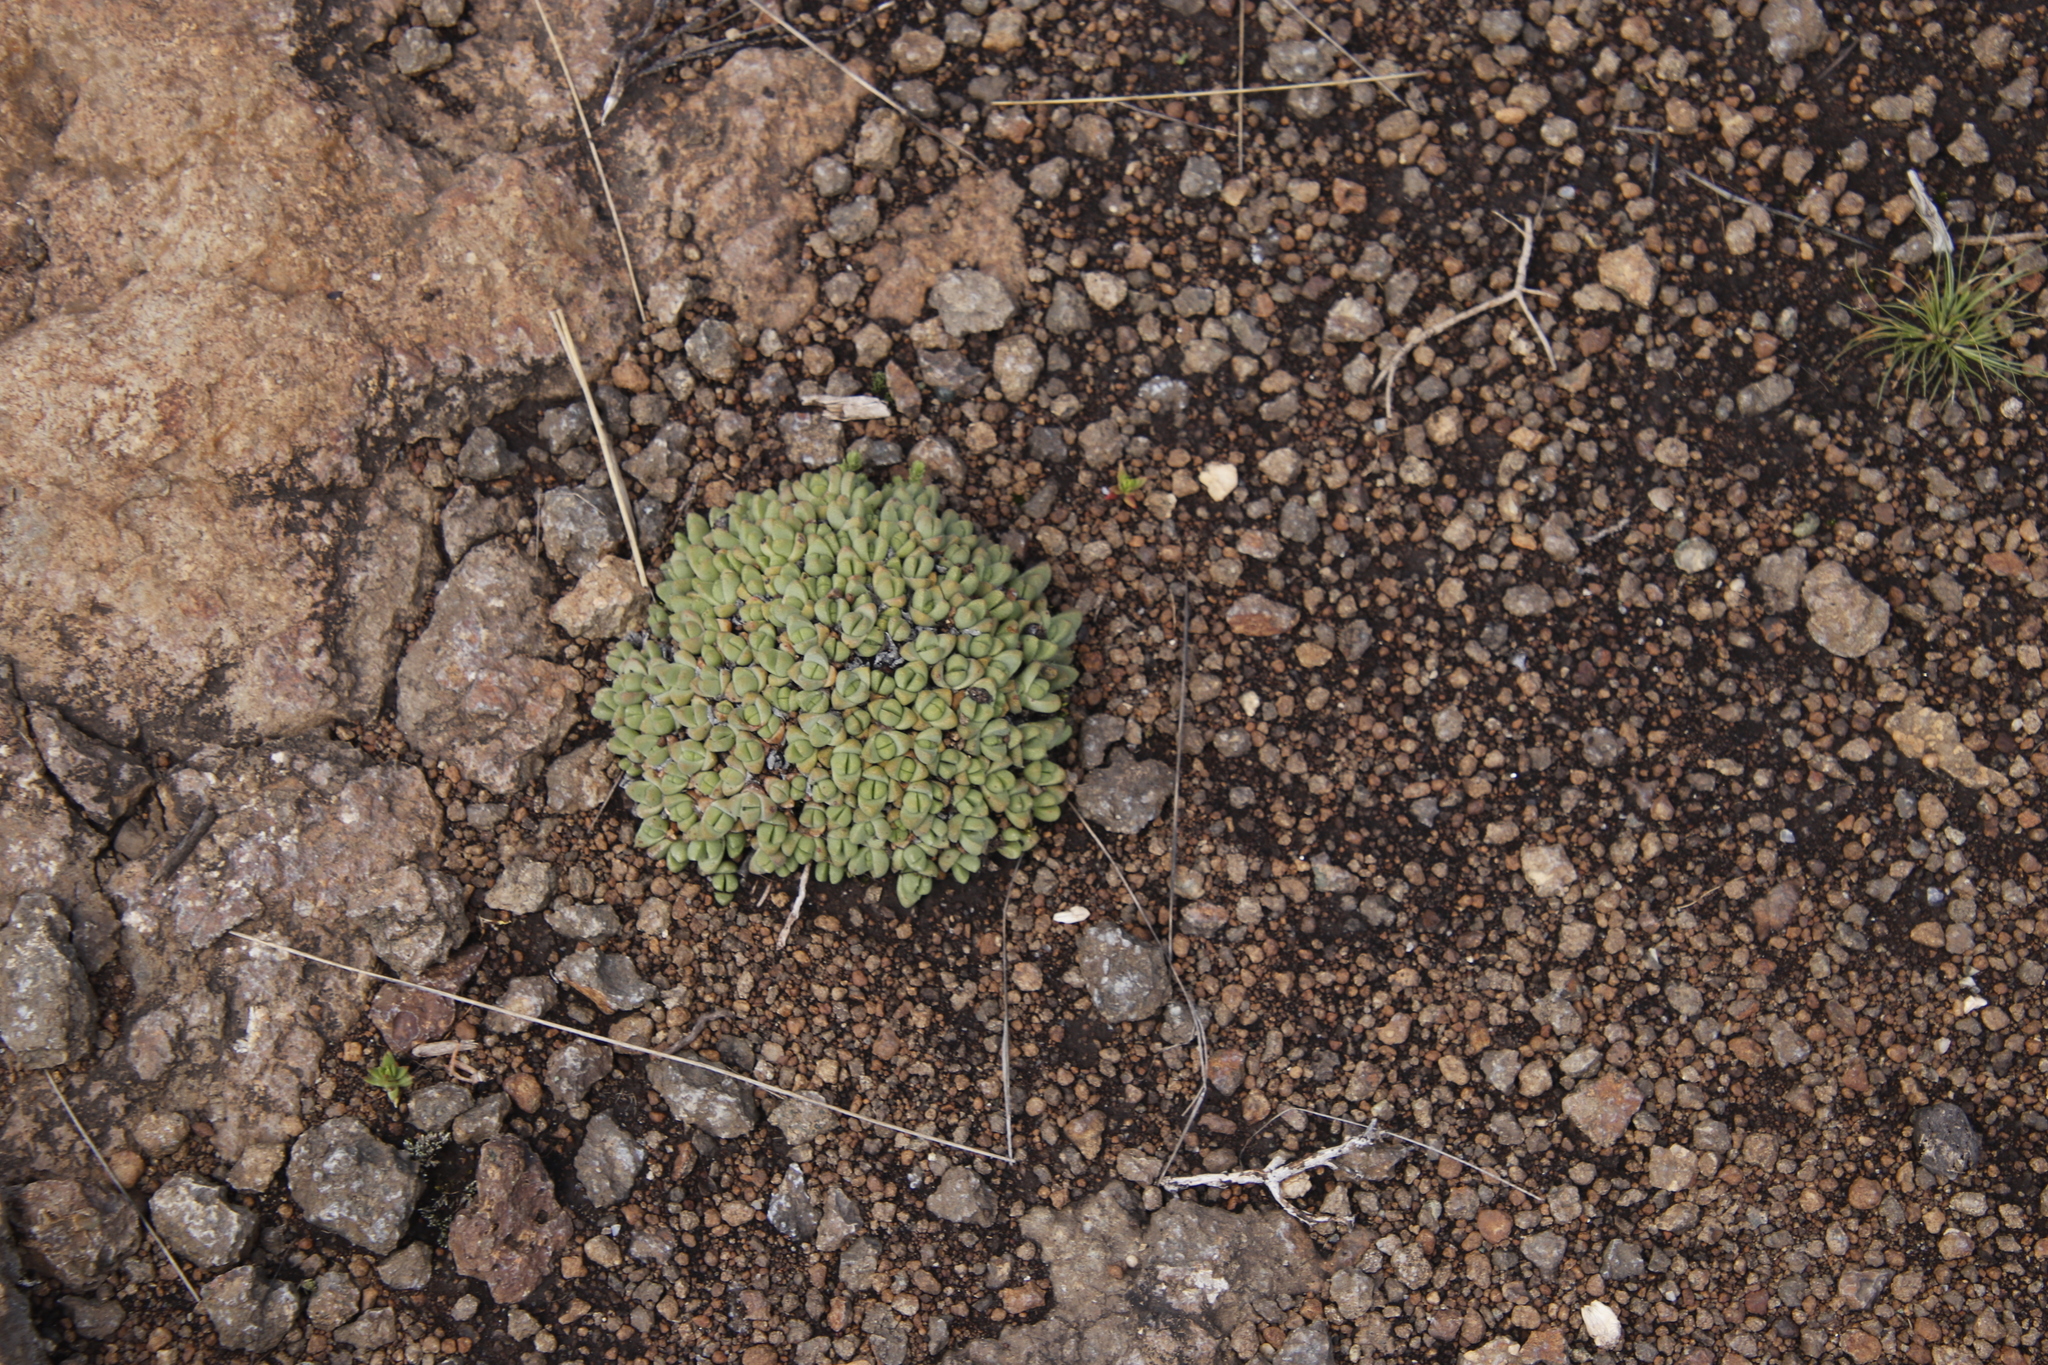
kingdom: Plantae
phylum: Tracheophyta
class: Magnoliopsida
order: Caryophyllales
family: Aizoaceae
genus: Stomatium
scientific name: Stomatium gerstneri
